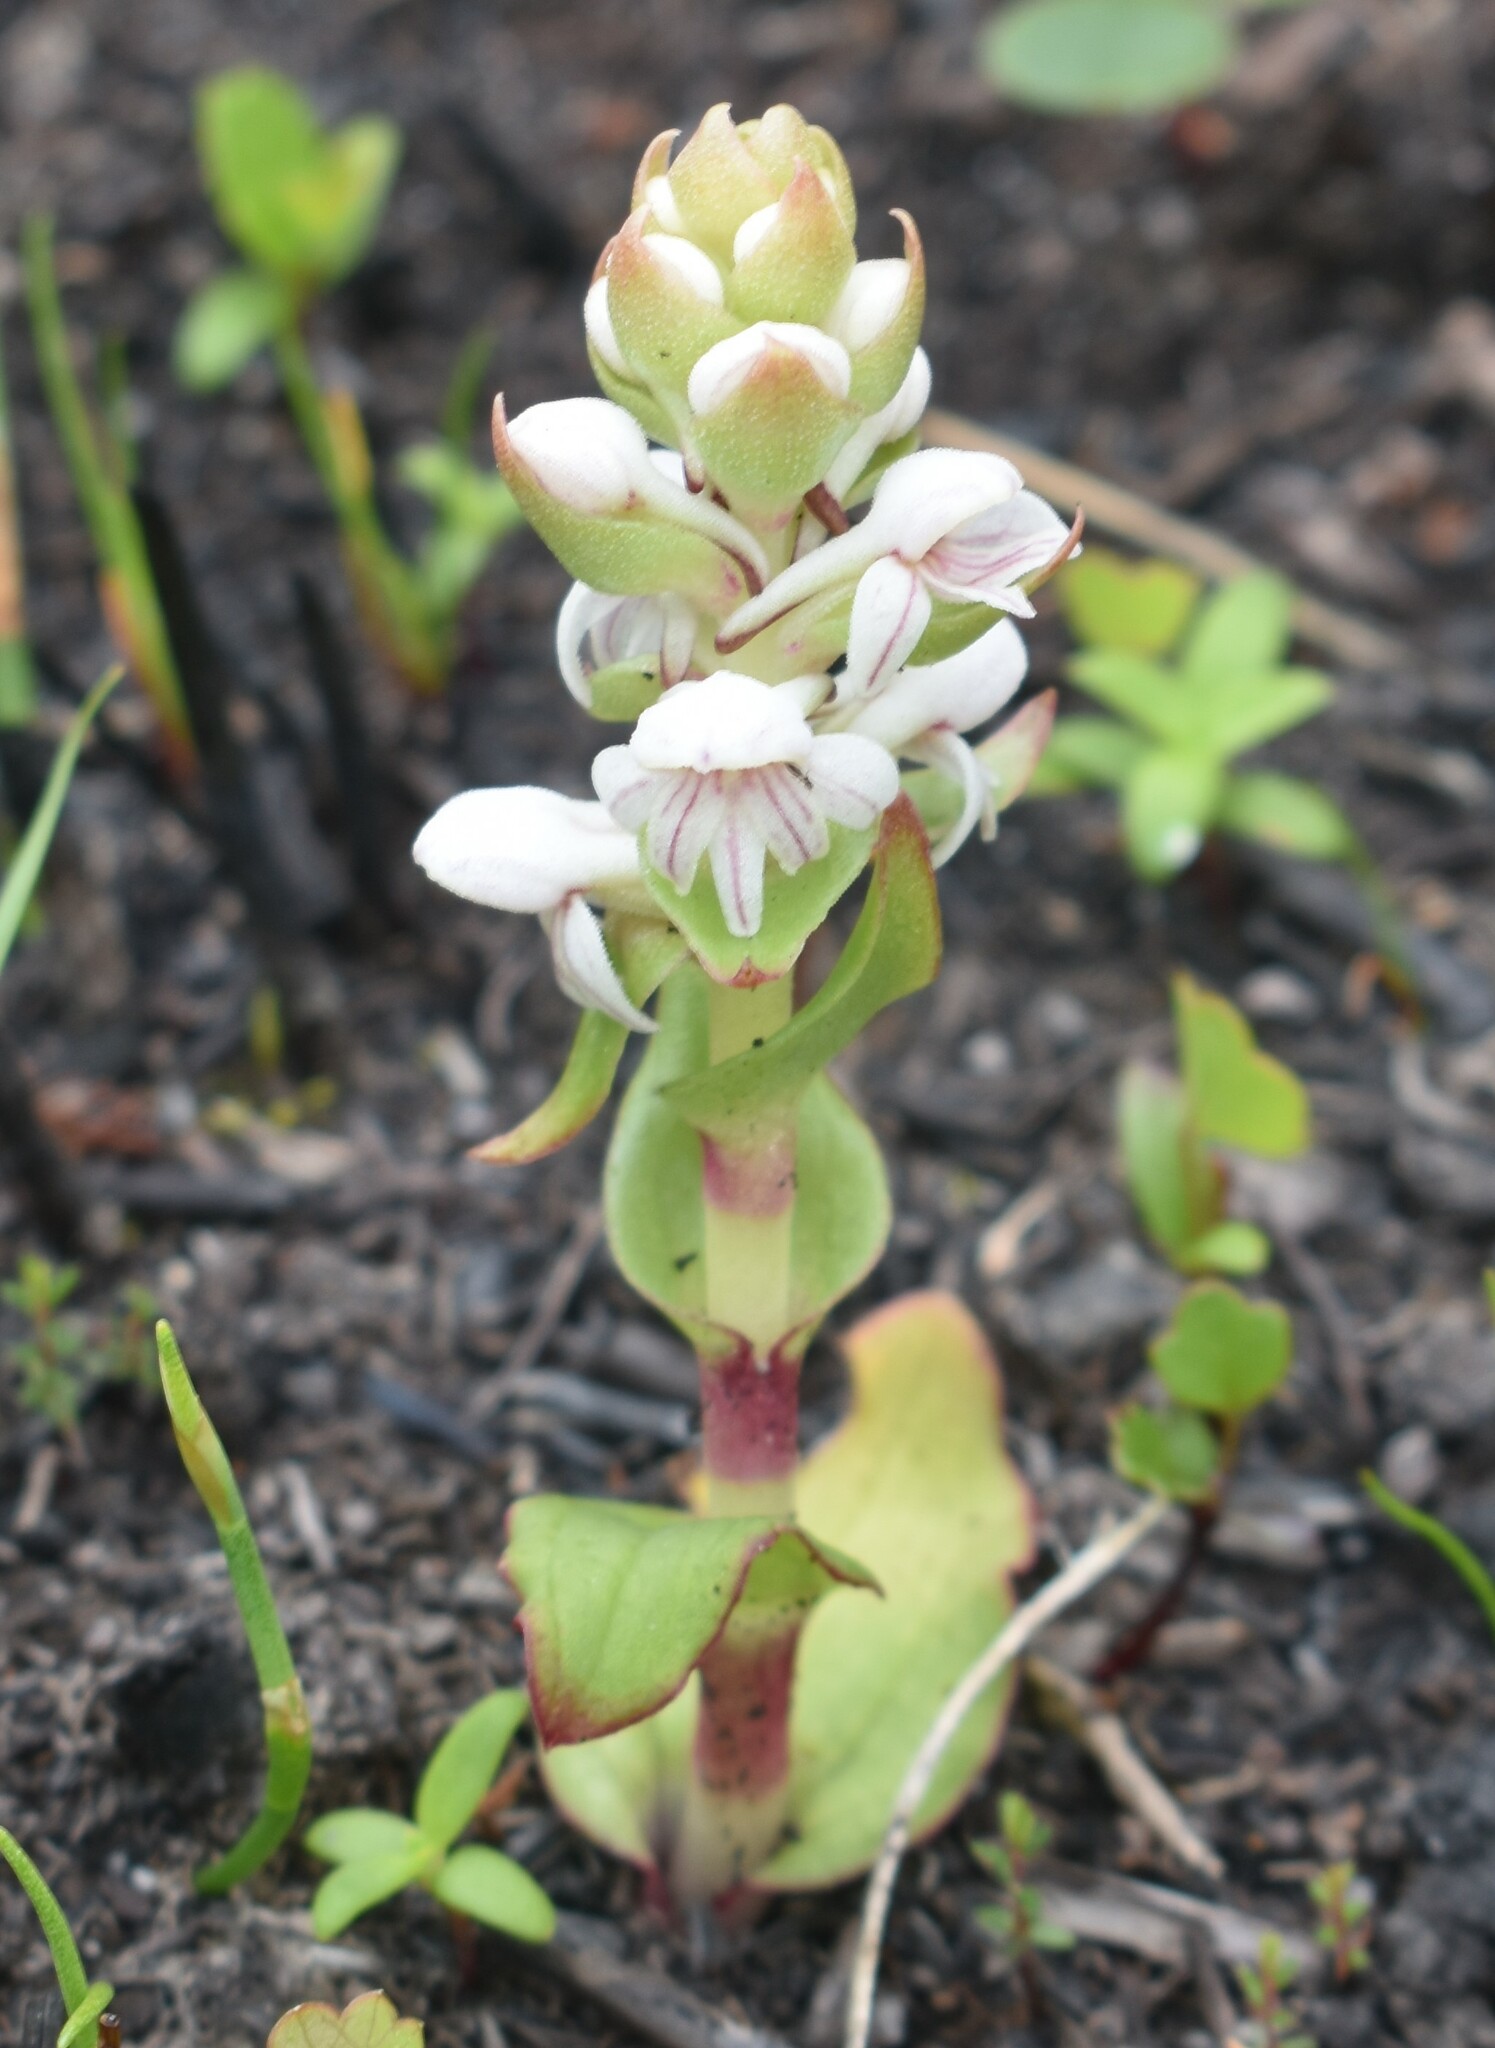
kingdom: Plantae
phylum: Tracheophyta
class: Liliopsida
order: Asparagales
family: Orchidaceae
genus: Satyrium
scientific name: Satyrium pygmaeum
